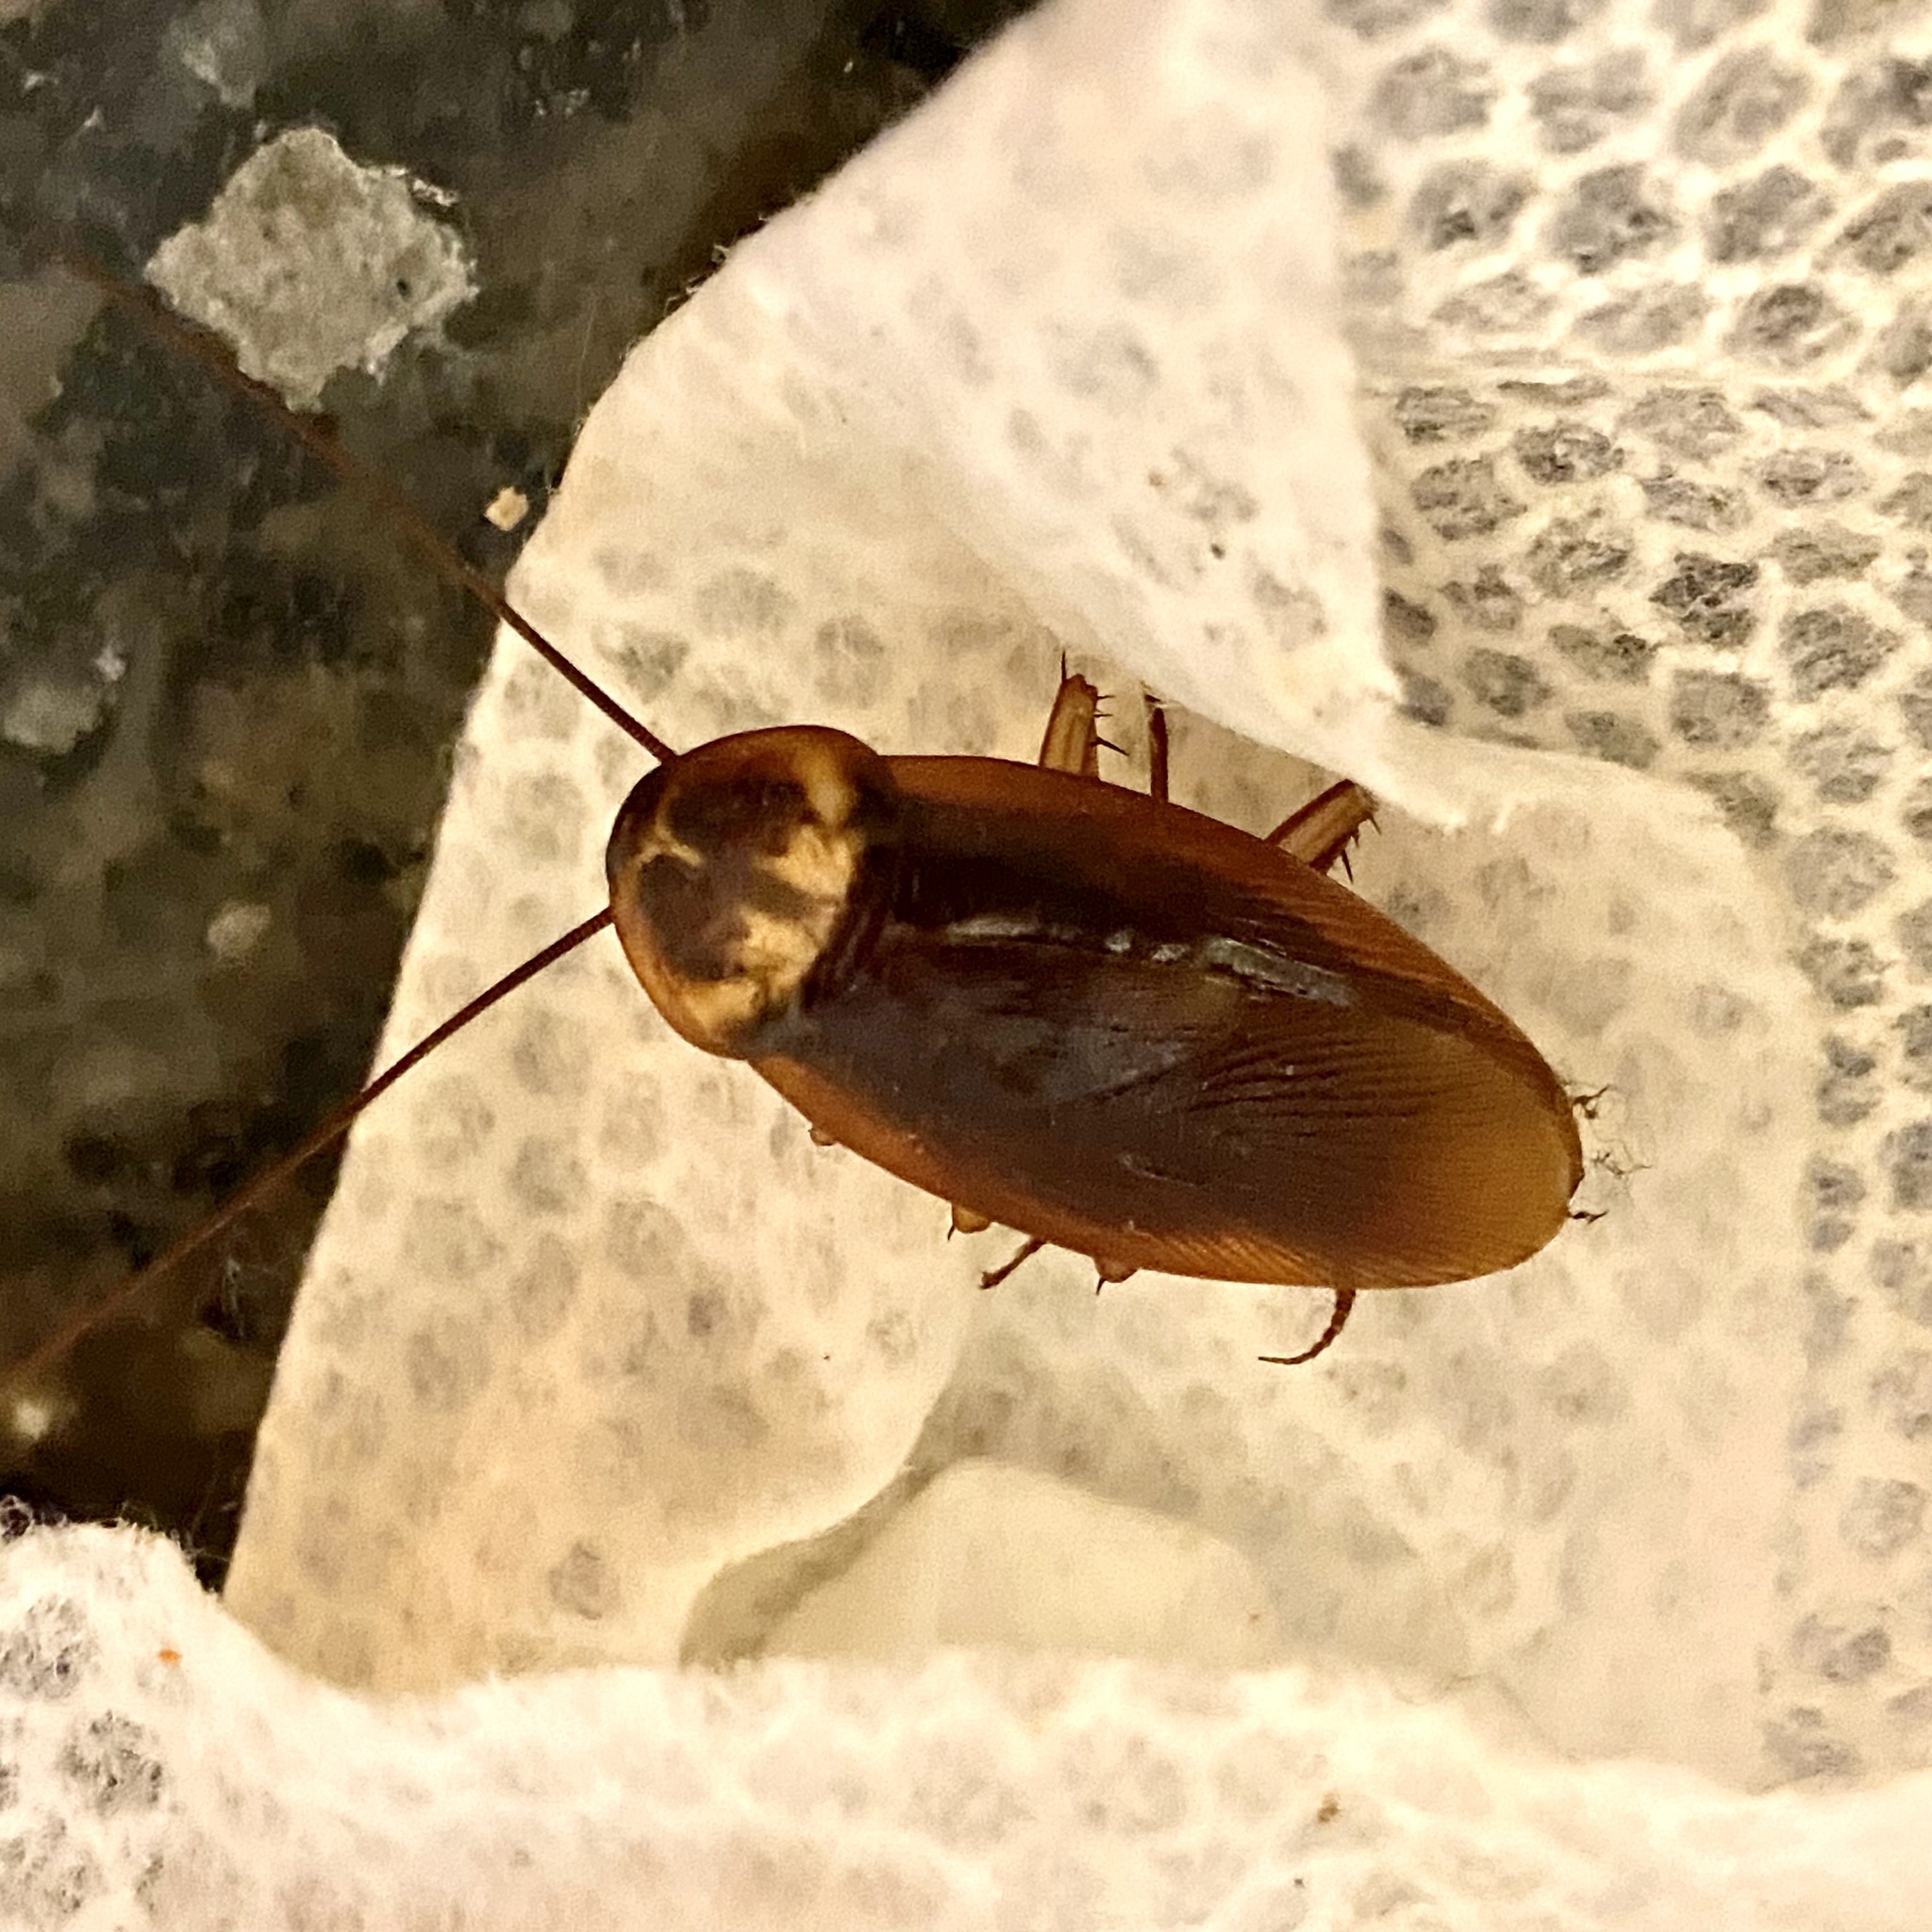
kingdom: Animalia
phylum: Arthropoda
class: Insecta
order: Blattodea
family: Blattidae
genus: Periplaneta
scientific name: Periplaneta americana
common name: American cockroach
